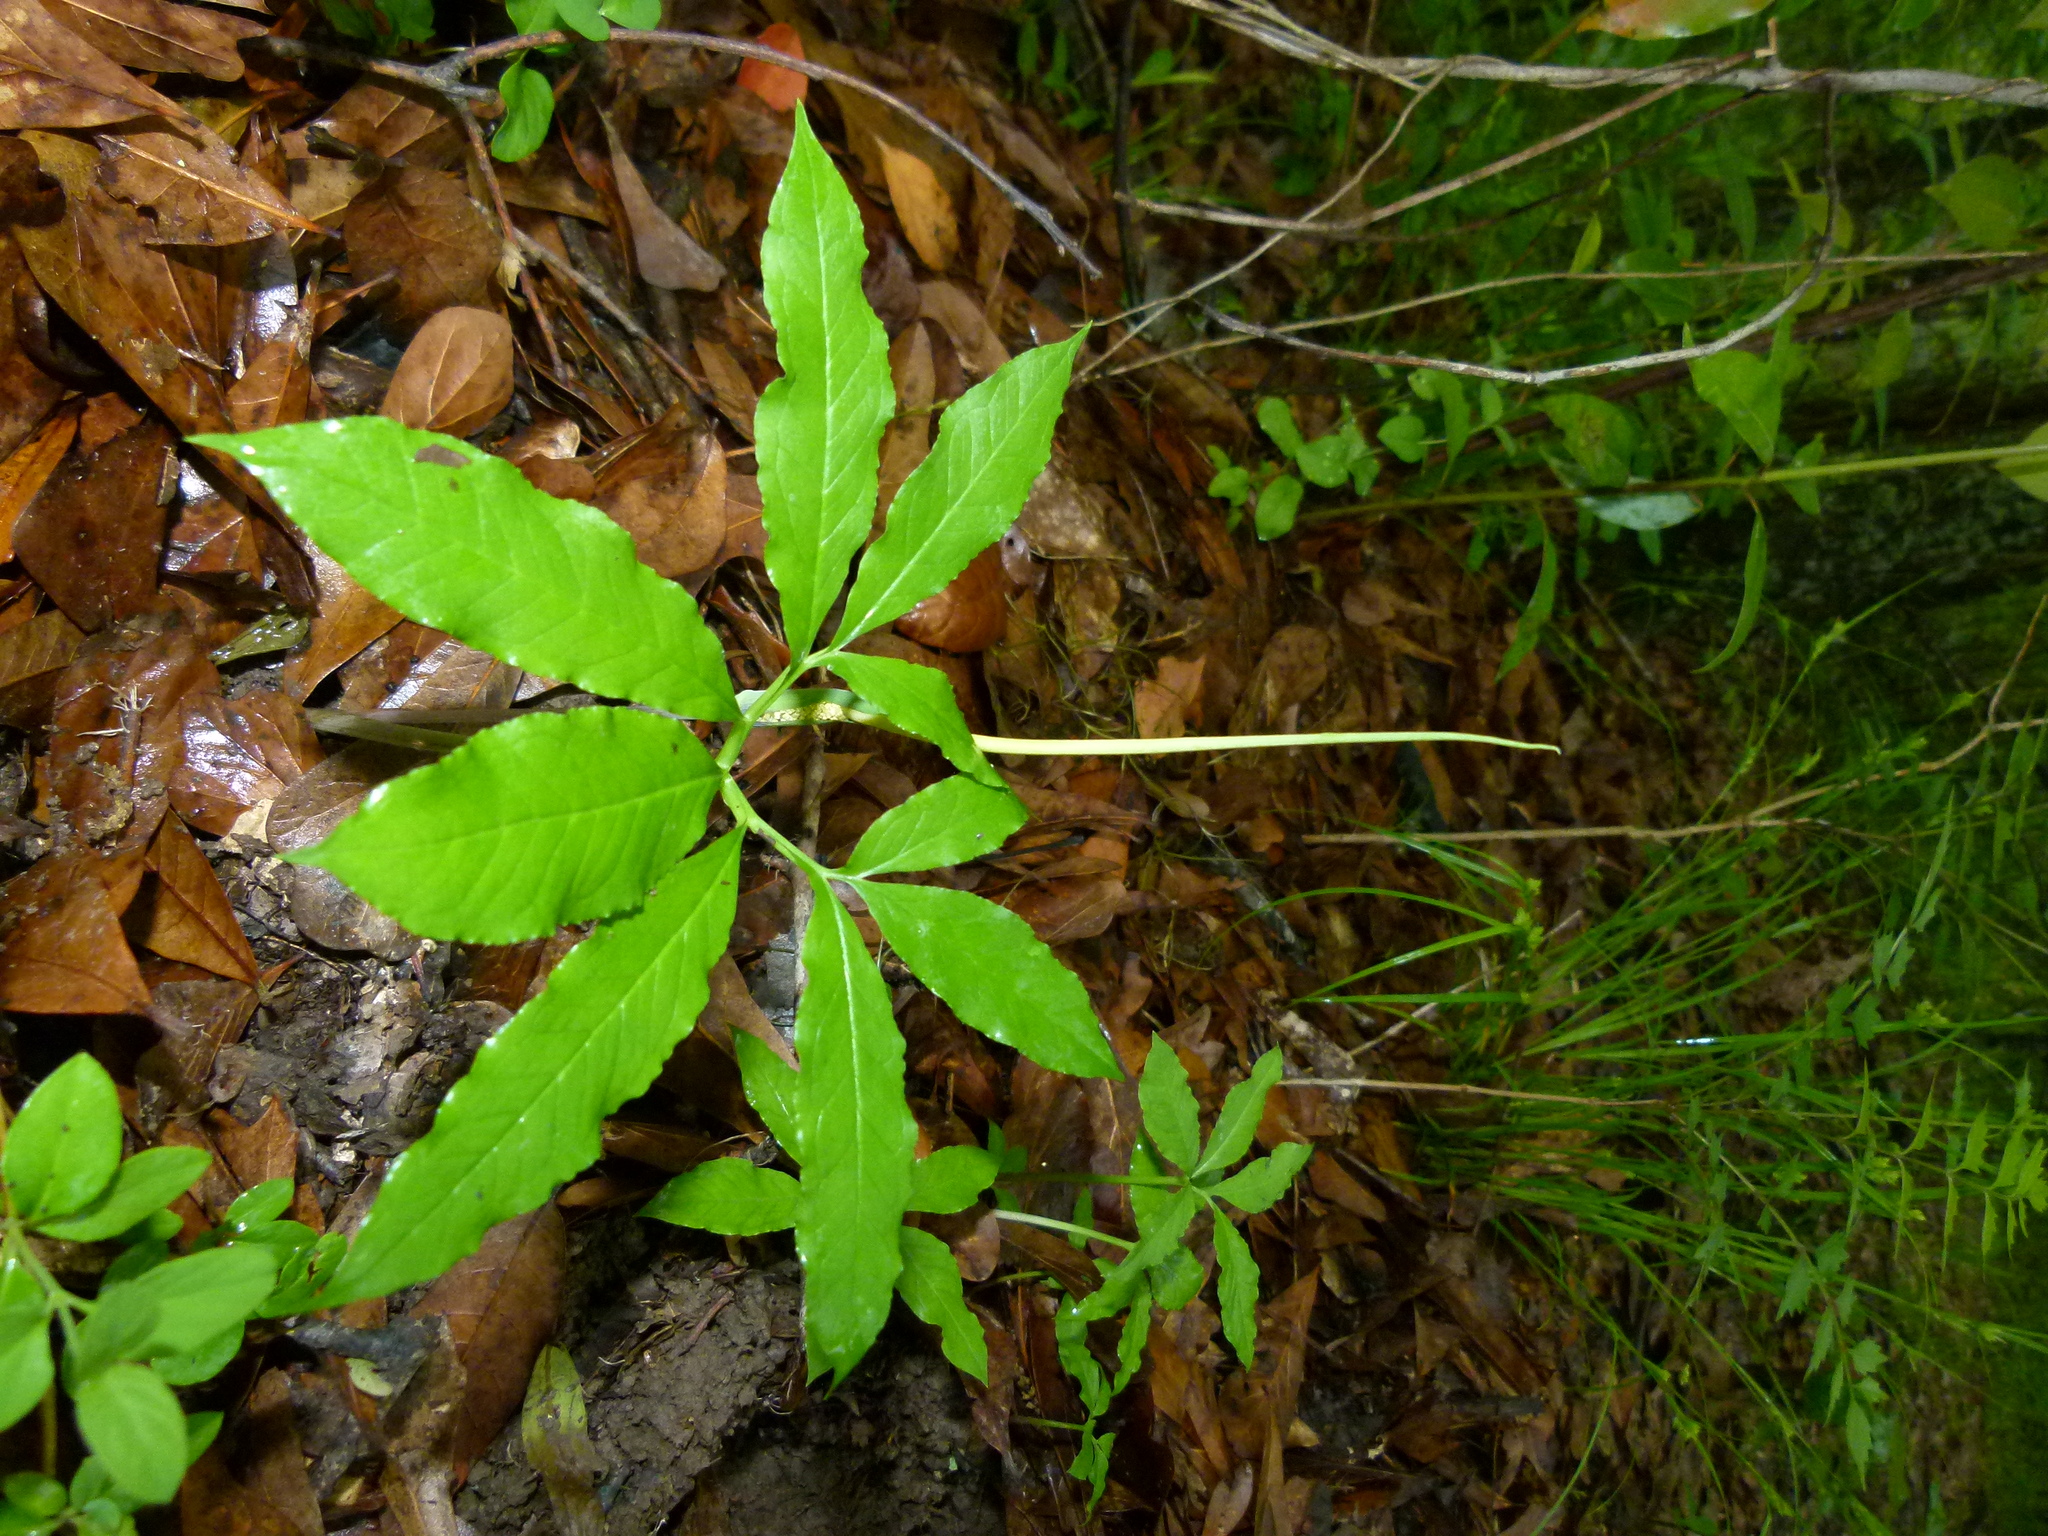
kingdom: Plantae
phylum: Tracheophyta
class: Liliopsida
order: Alismatales
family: Araceae
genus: Arisaema
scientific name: Arisaema dracontium
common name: Dragon-arum
